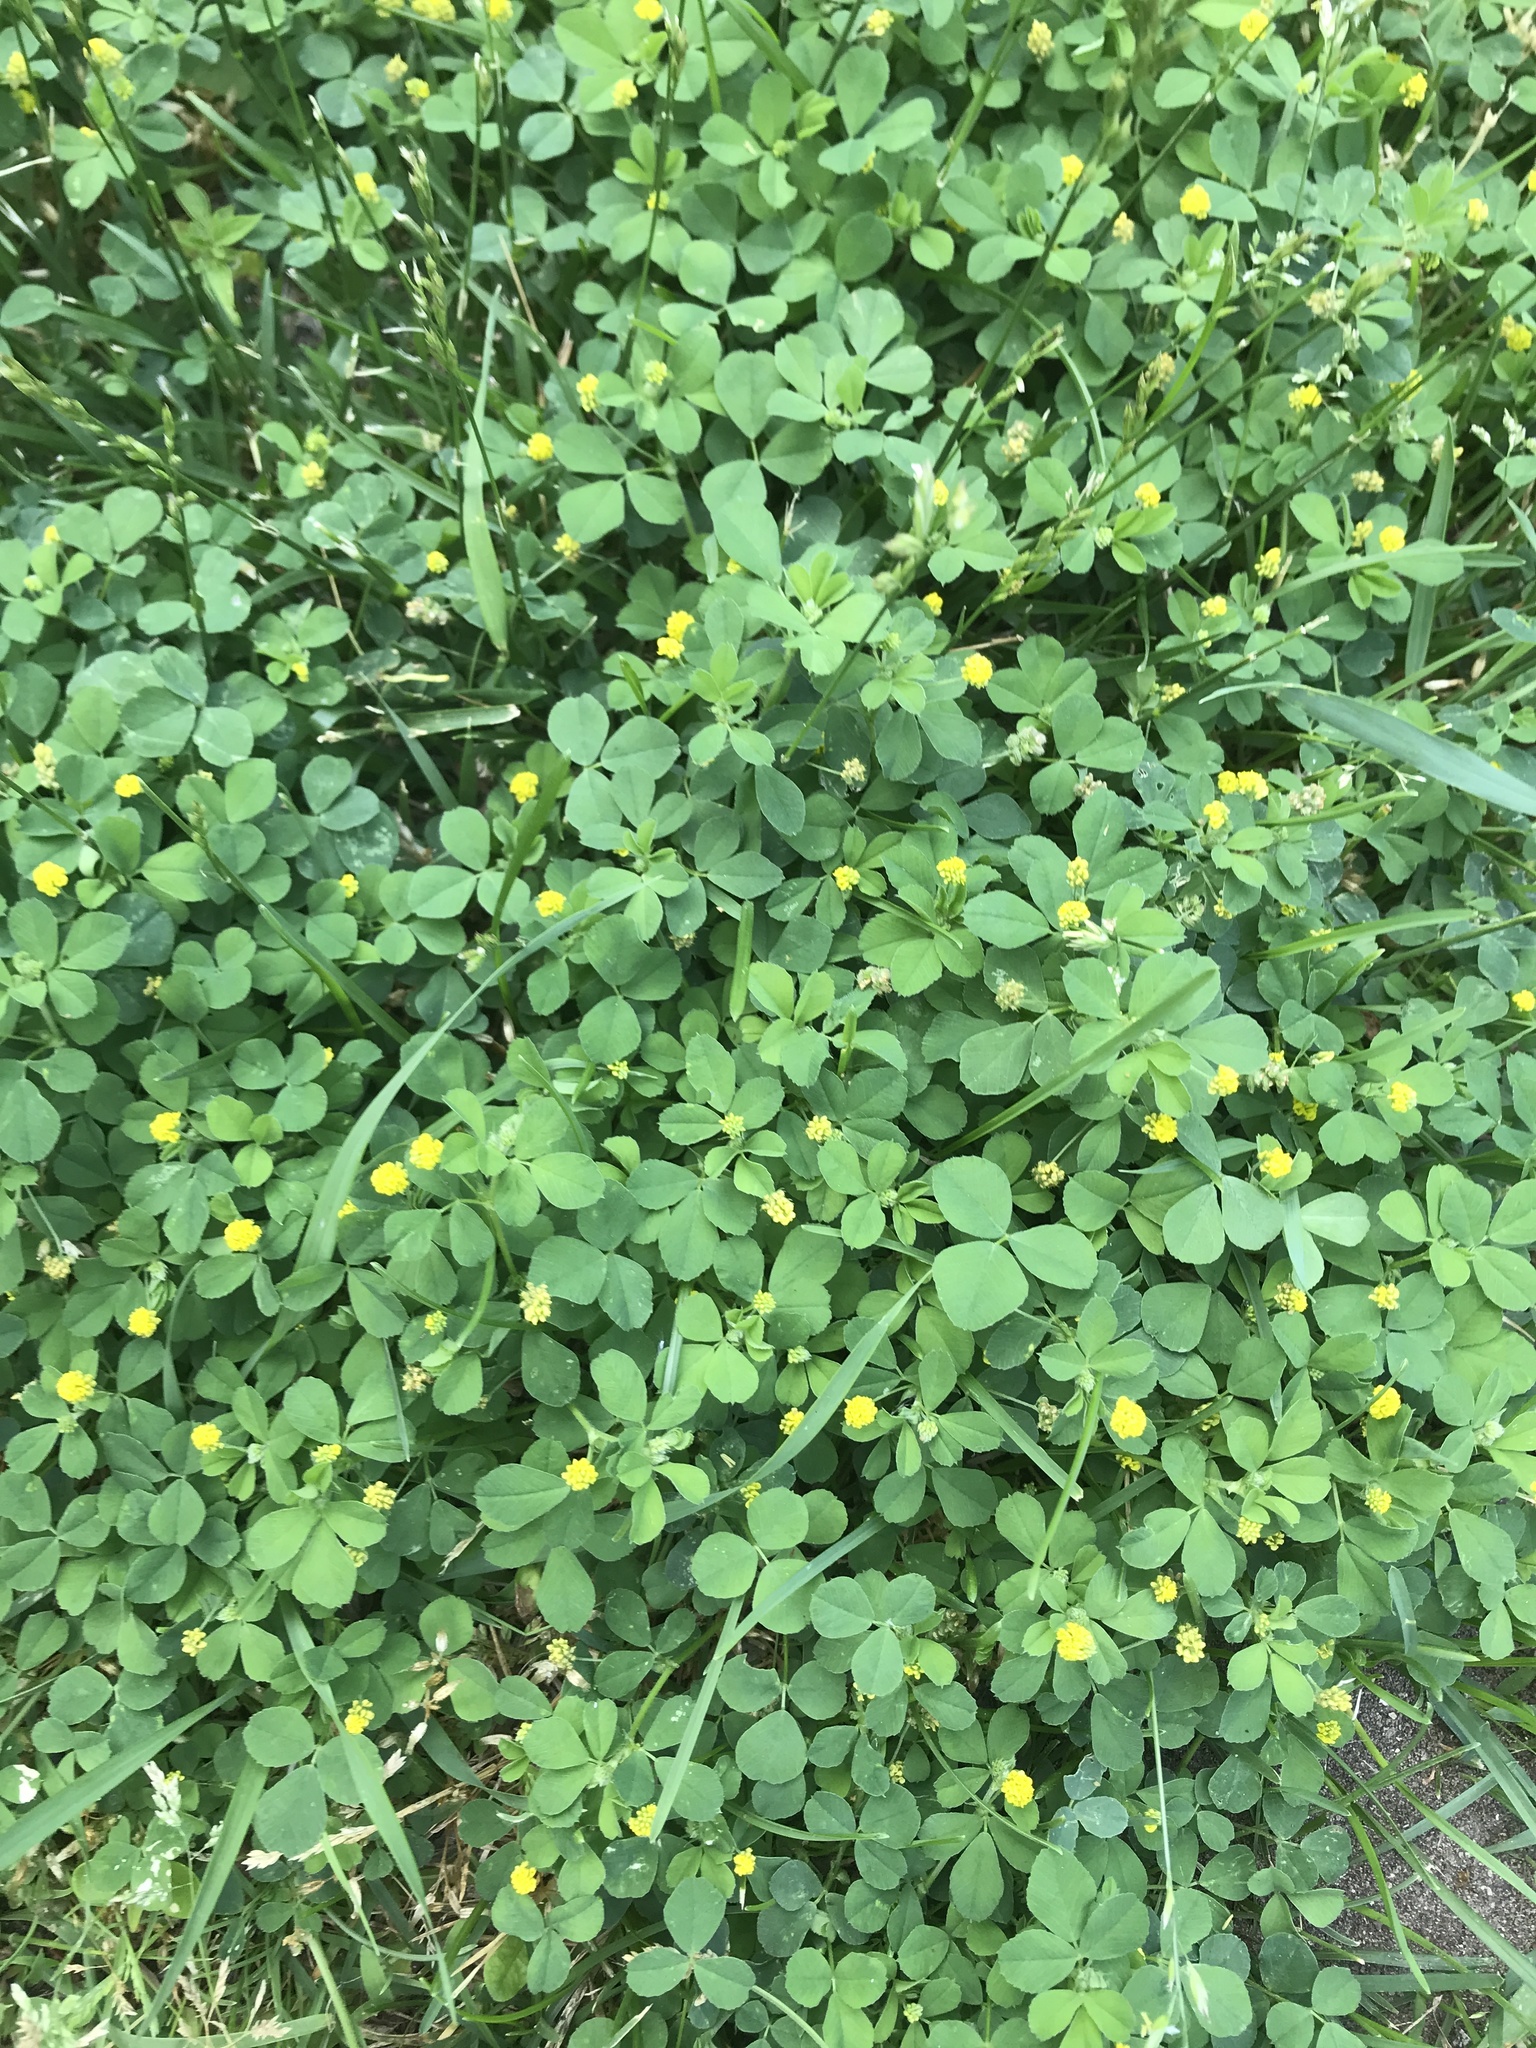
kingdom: Plantae
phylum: Tracheophyta
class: Magnoliopsida
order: Fabales
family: Fabaceae
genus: Medicago
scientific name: Medicago lupulina
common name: Black medick
